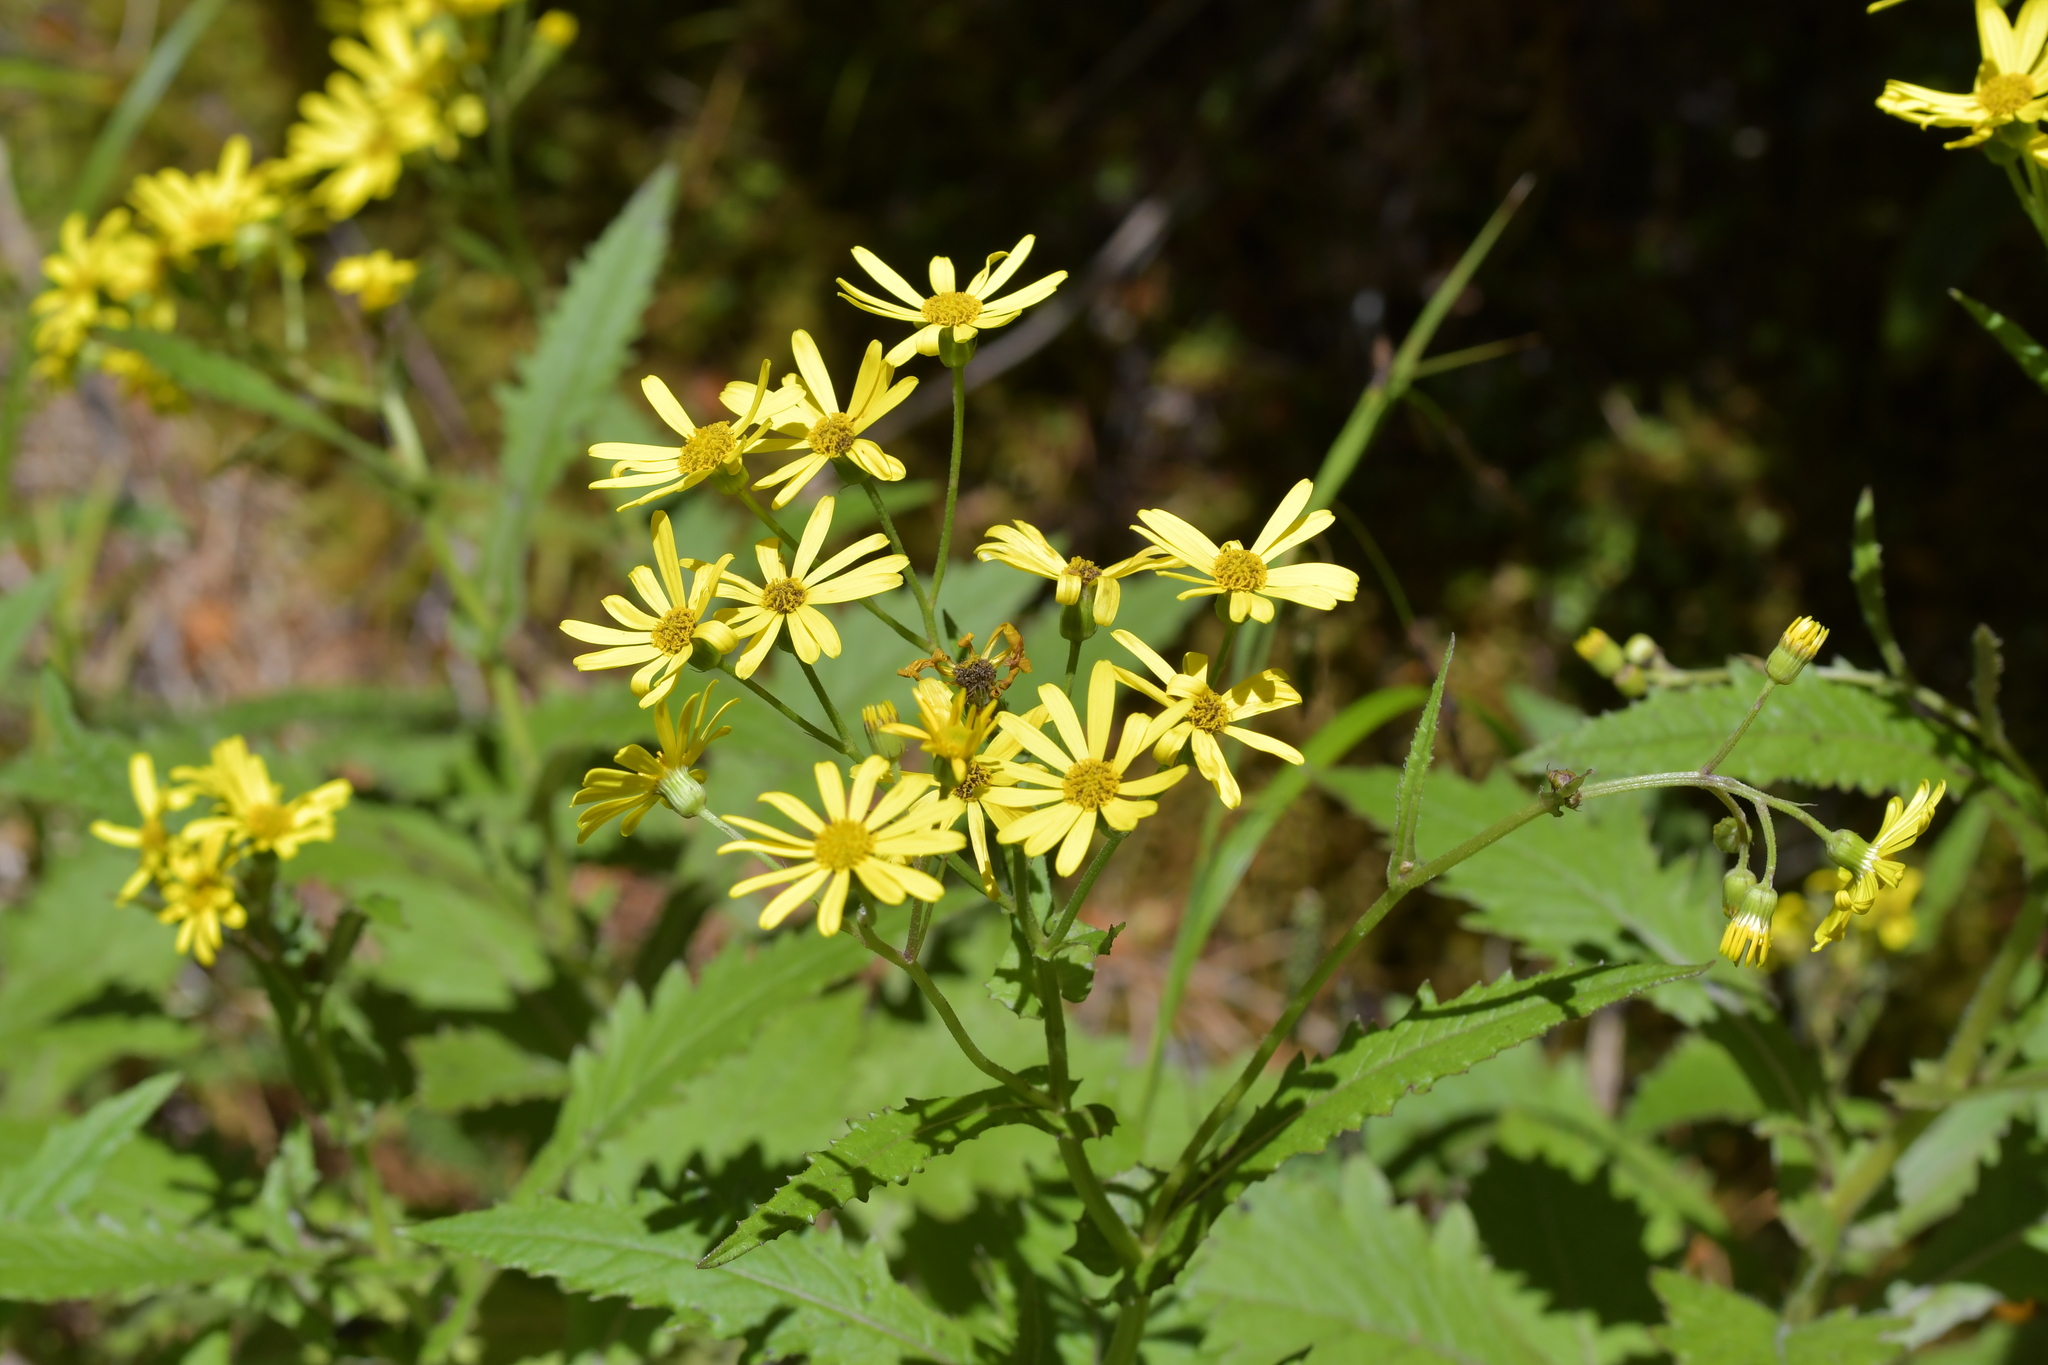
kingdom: Plantae
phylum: Tracheophyta
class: Magnoliopsida
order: Asterales
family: Asteraceae
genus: Senecio
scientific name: Senecio rufiglandulosus
